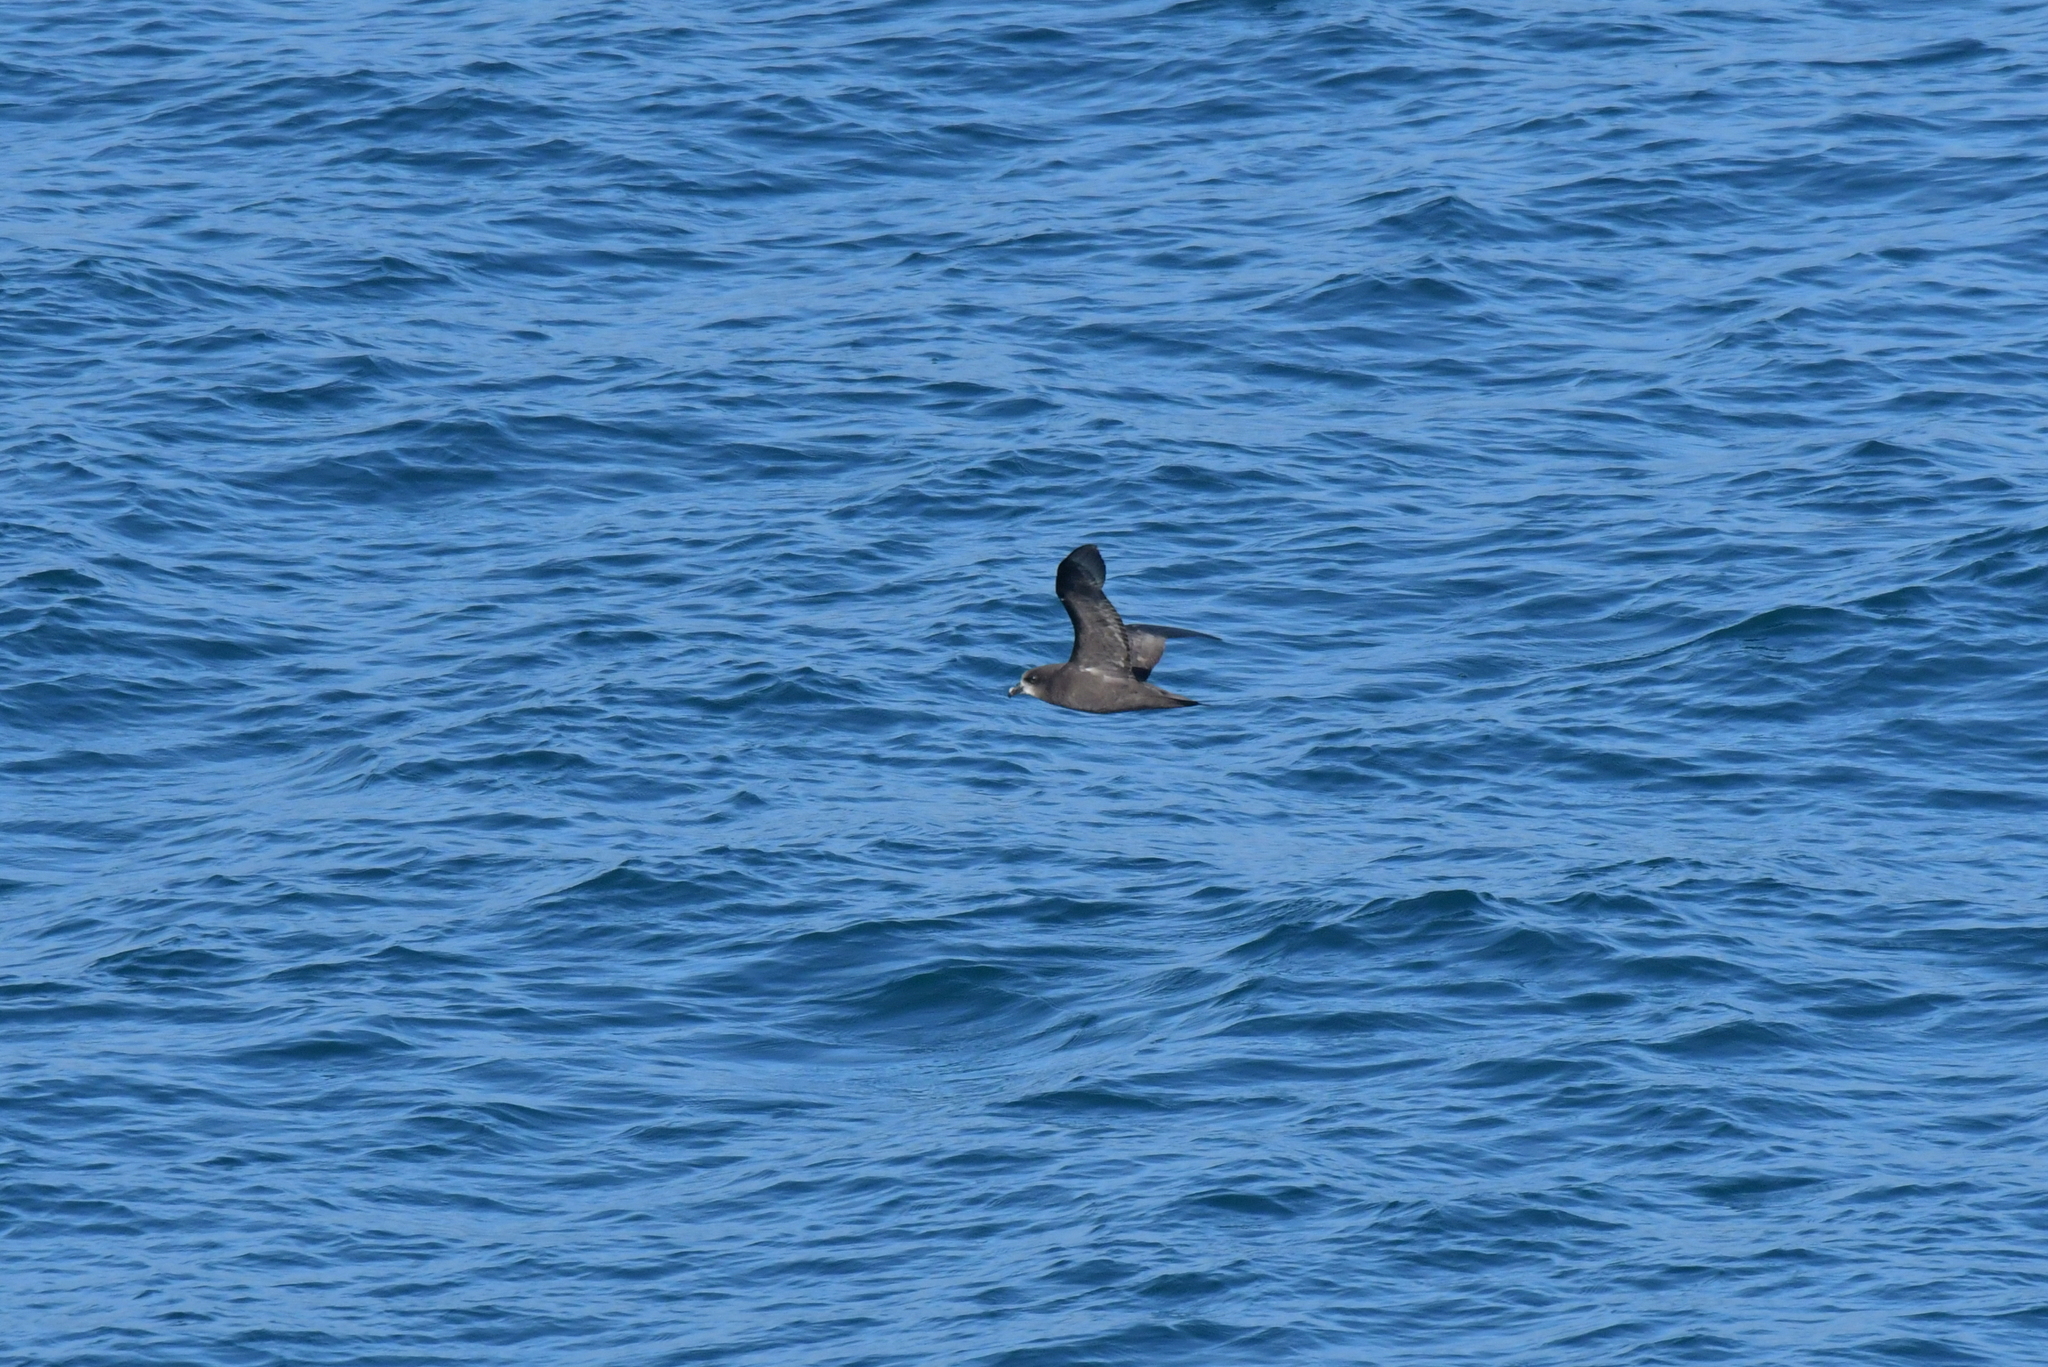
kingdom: Animalia
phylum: Chordata
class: Aves
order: Procellariiformes
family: Procellariidae
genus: Pterodroma
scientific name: Pterodroma macroptera
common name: Great-winged petrel
